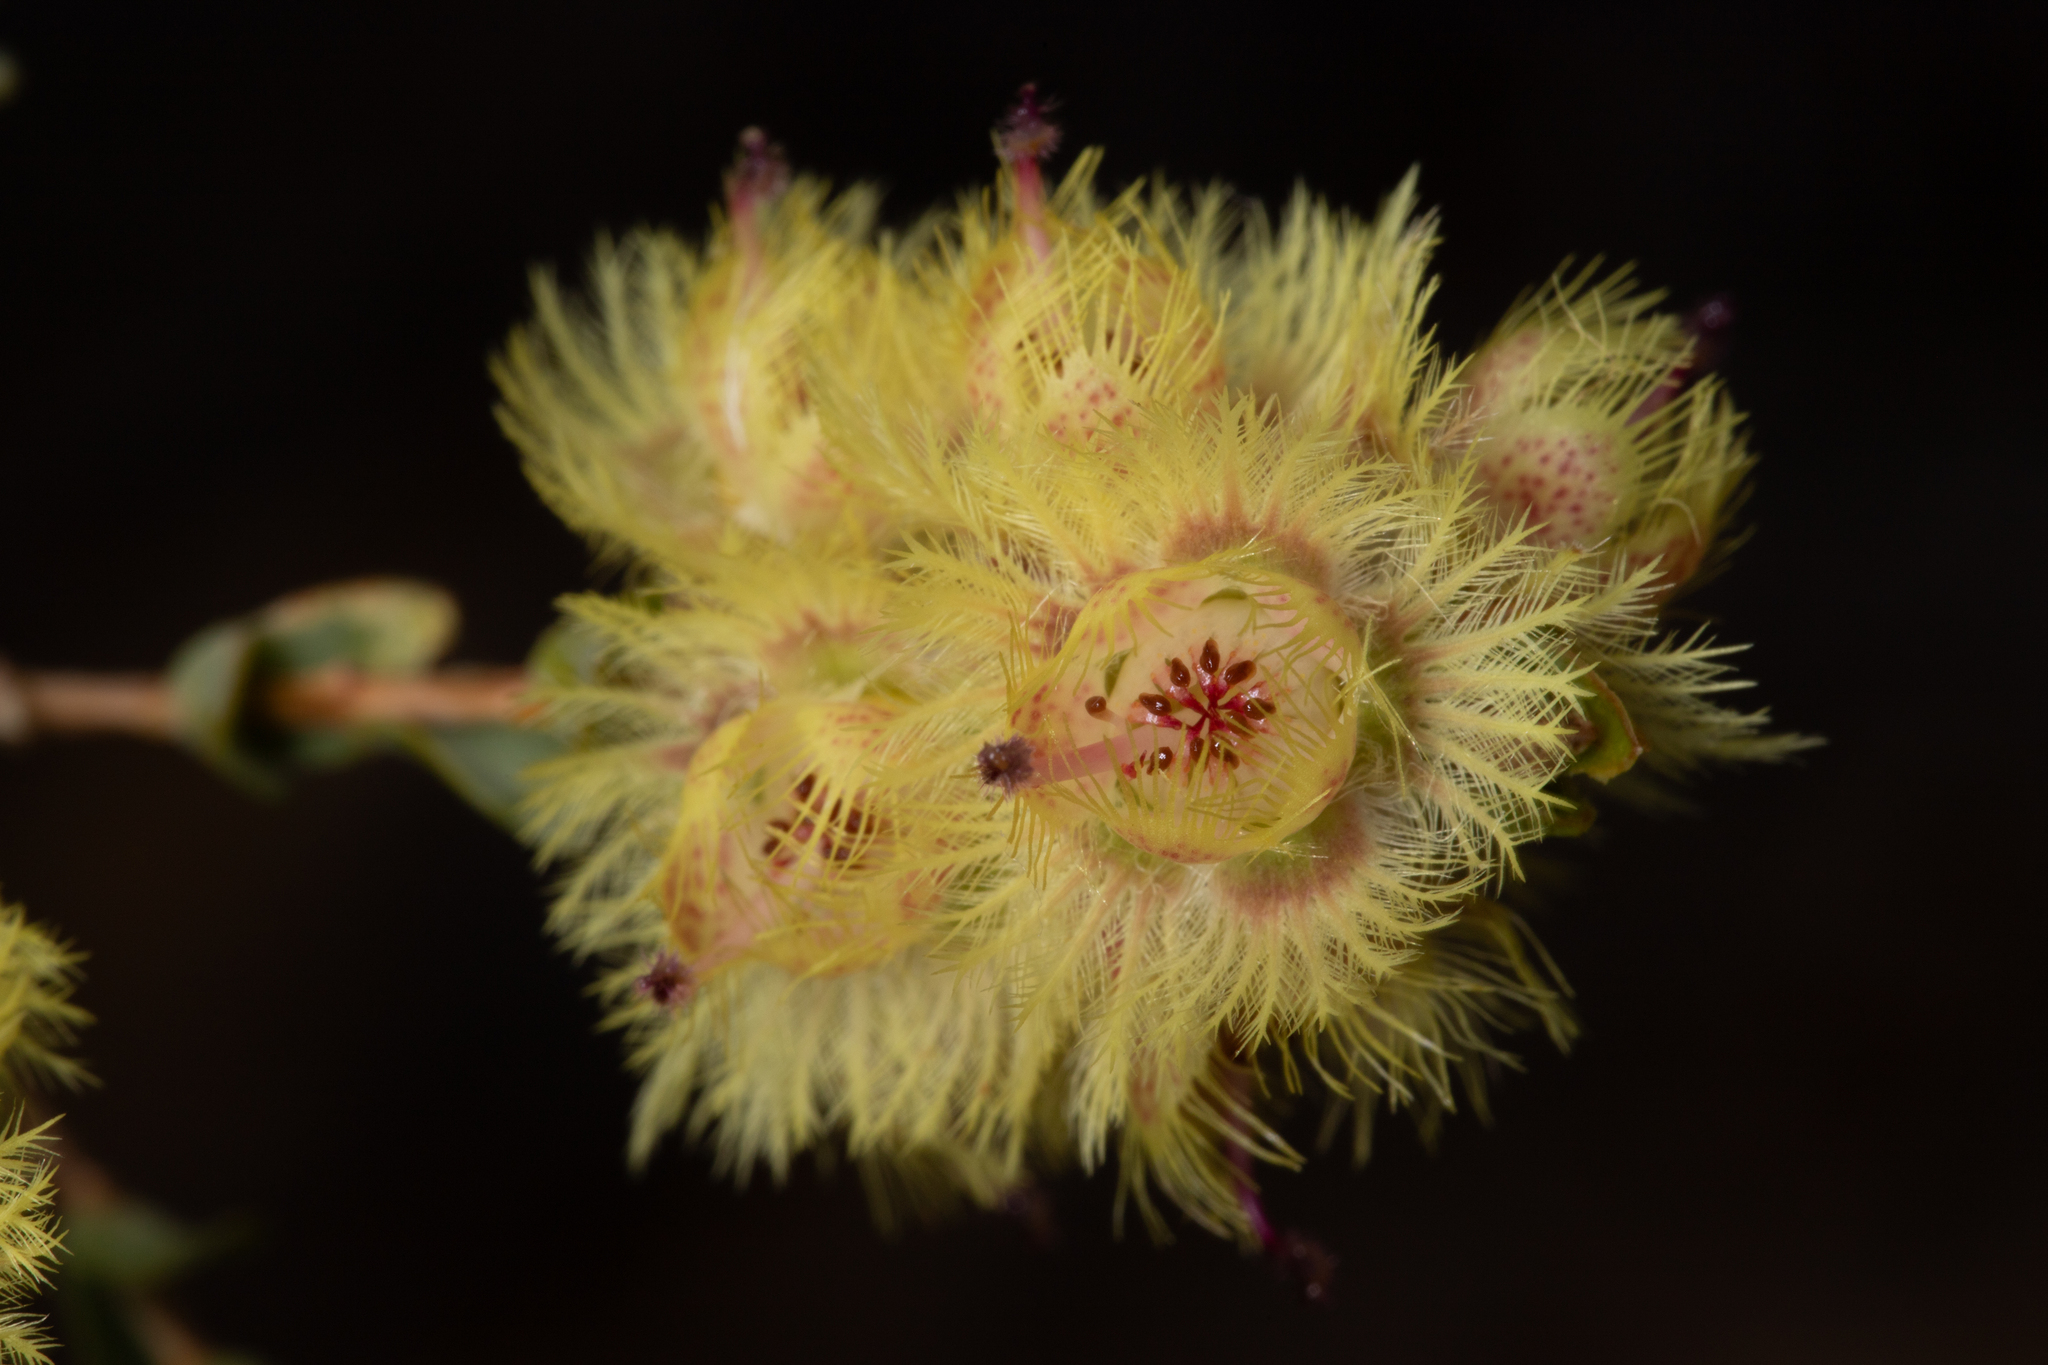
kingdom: Plantae
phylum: Tracheophyta
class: Magnoliopsida
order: Myrtales
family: Myrtaceae
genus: Verticordia
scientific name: Verticordia chrysostachys
